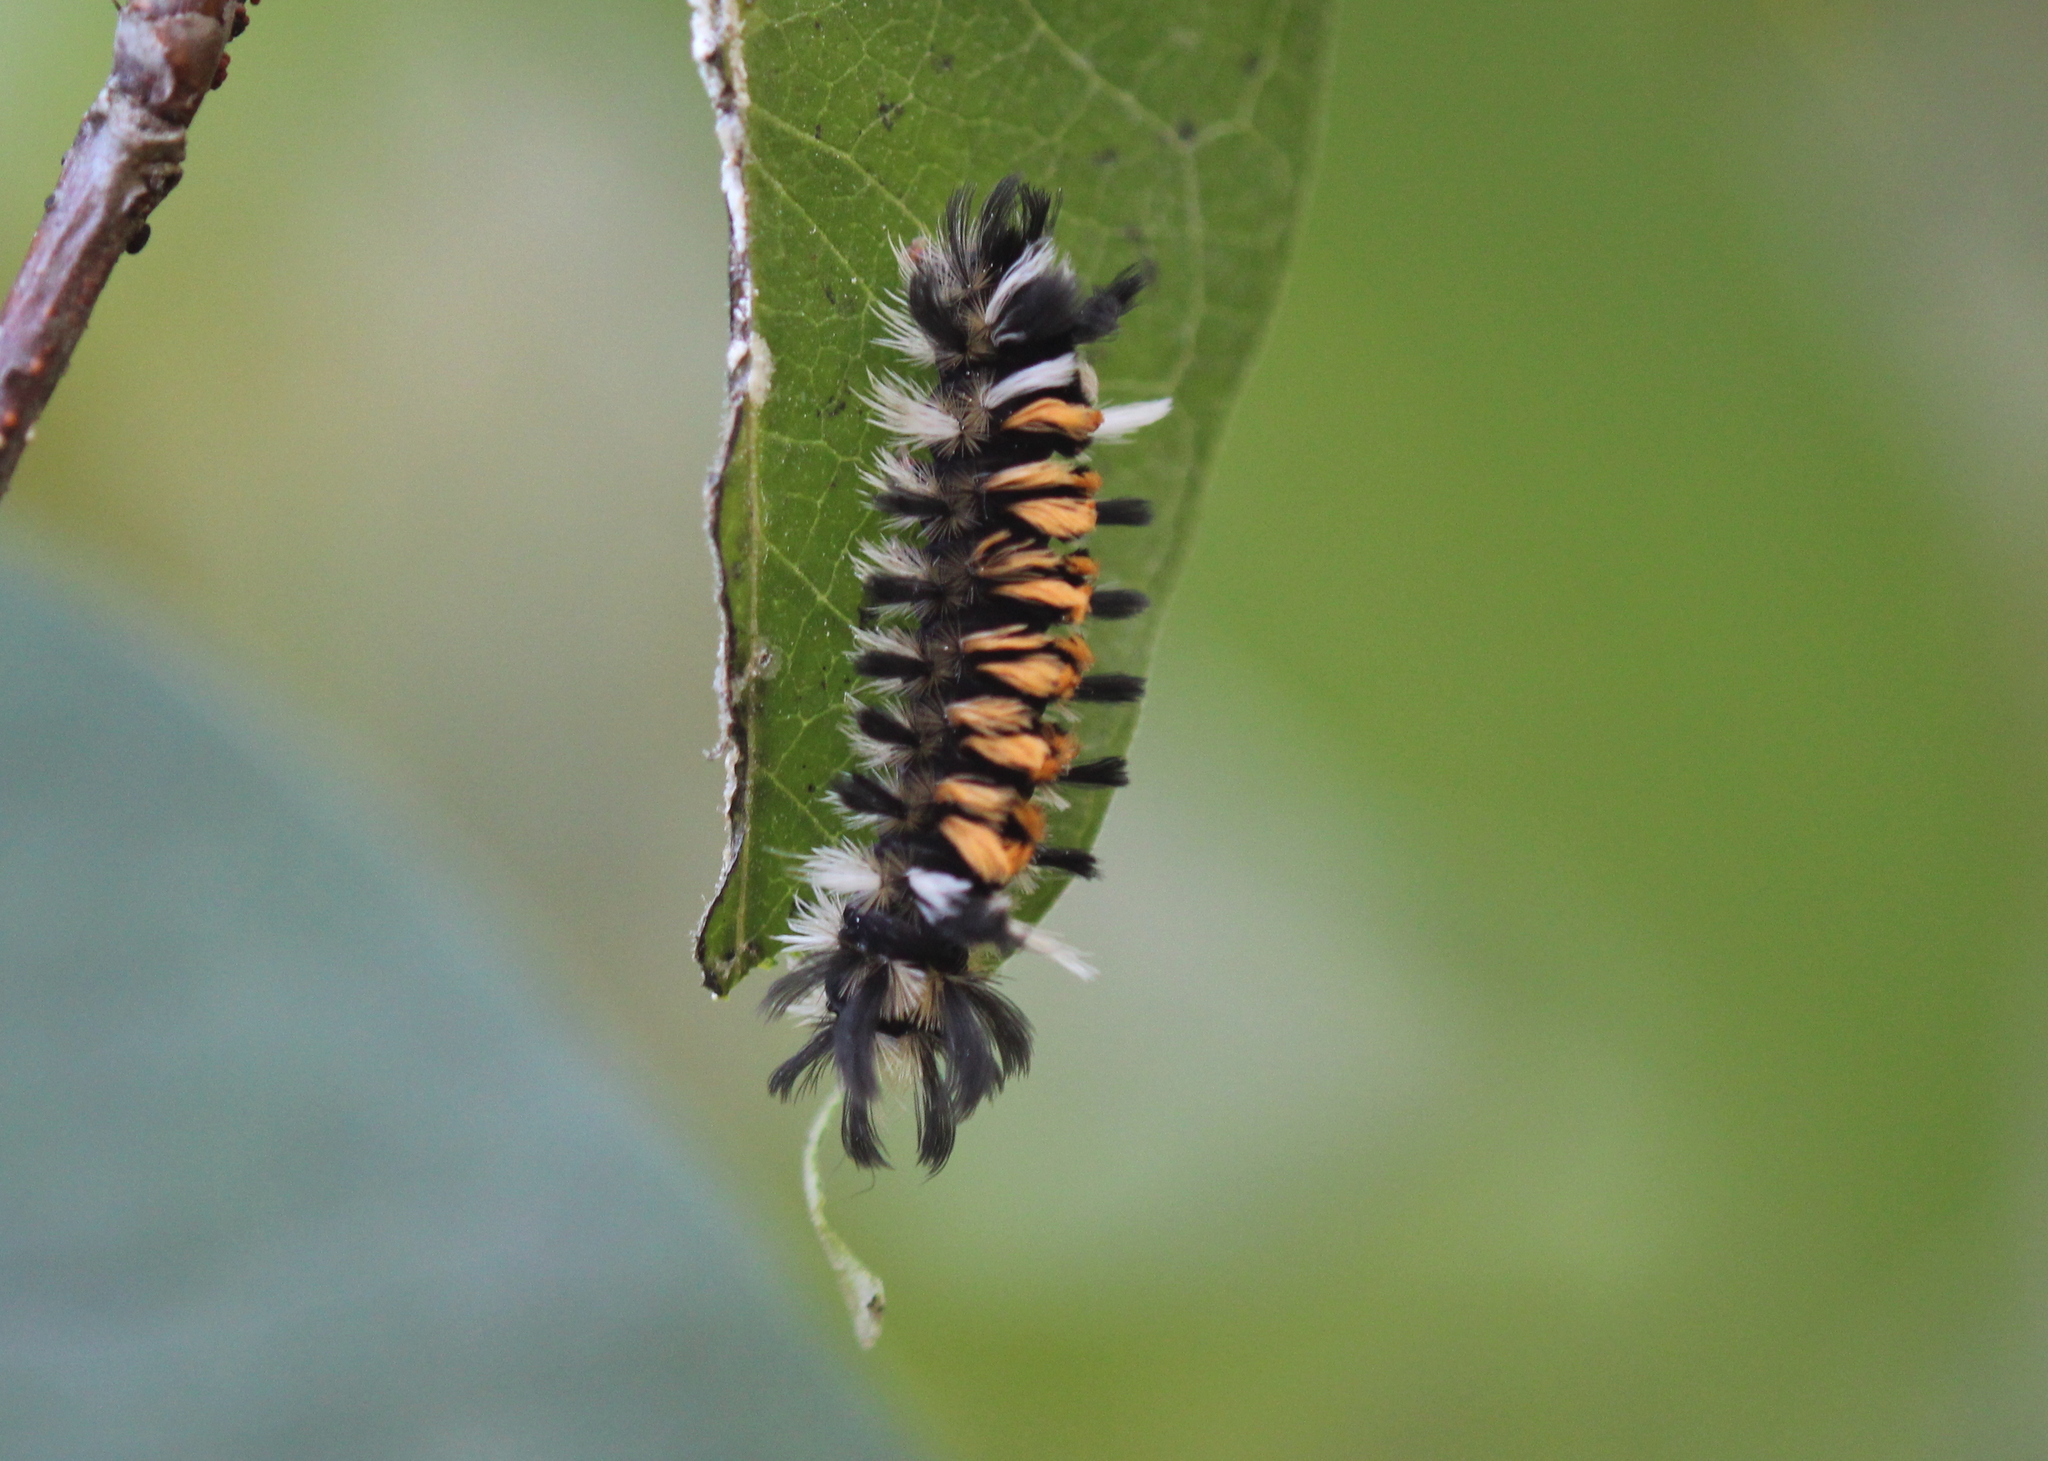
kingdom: Animalia
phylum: Arthropoda
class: Insecta
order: Lepidoptera
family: Erebidae
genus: Euchaetes
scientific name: Euchaetes egle
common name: Milkweed tussock moth
